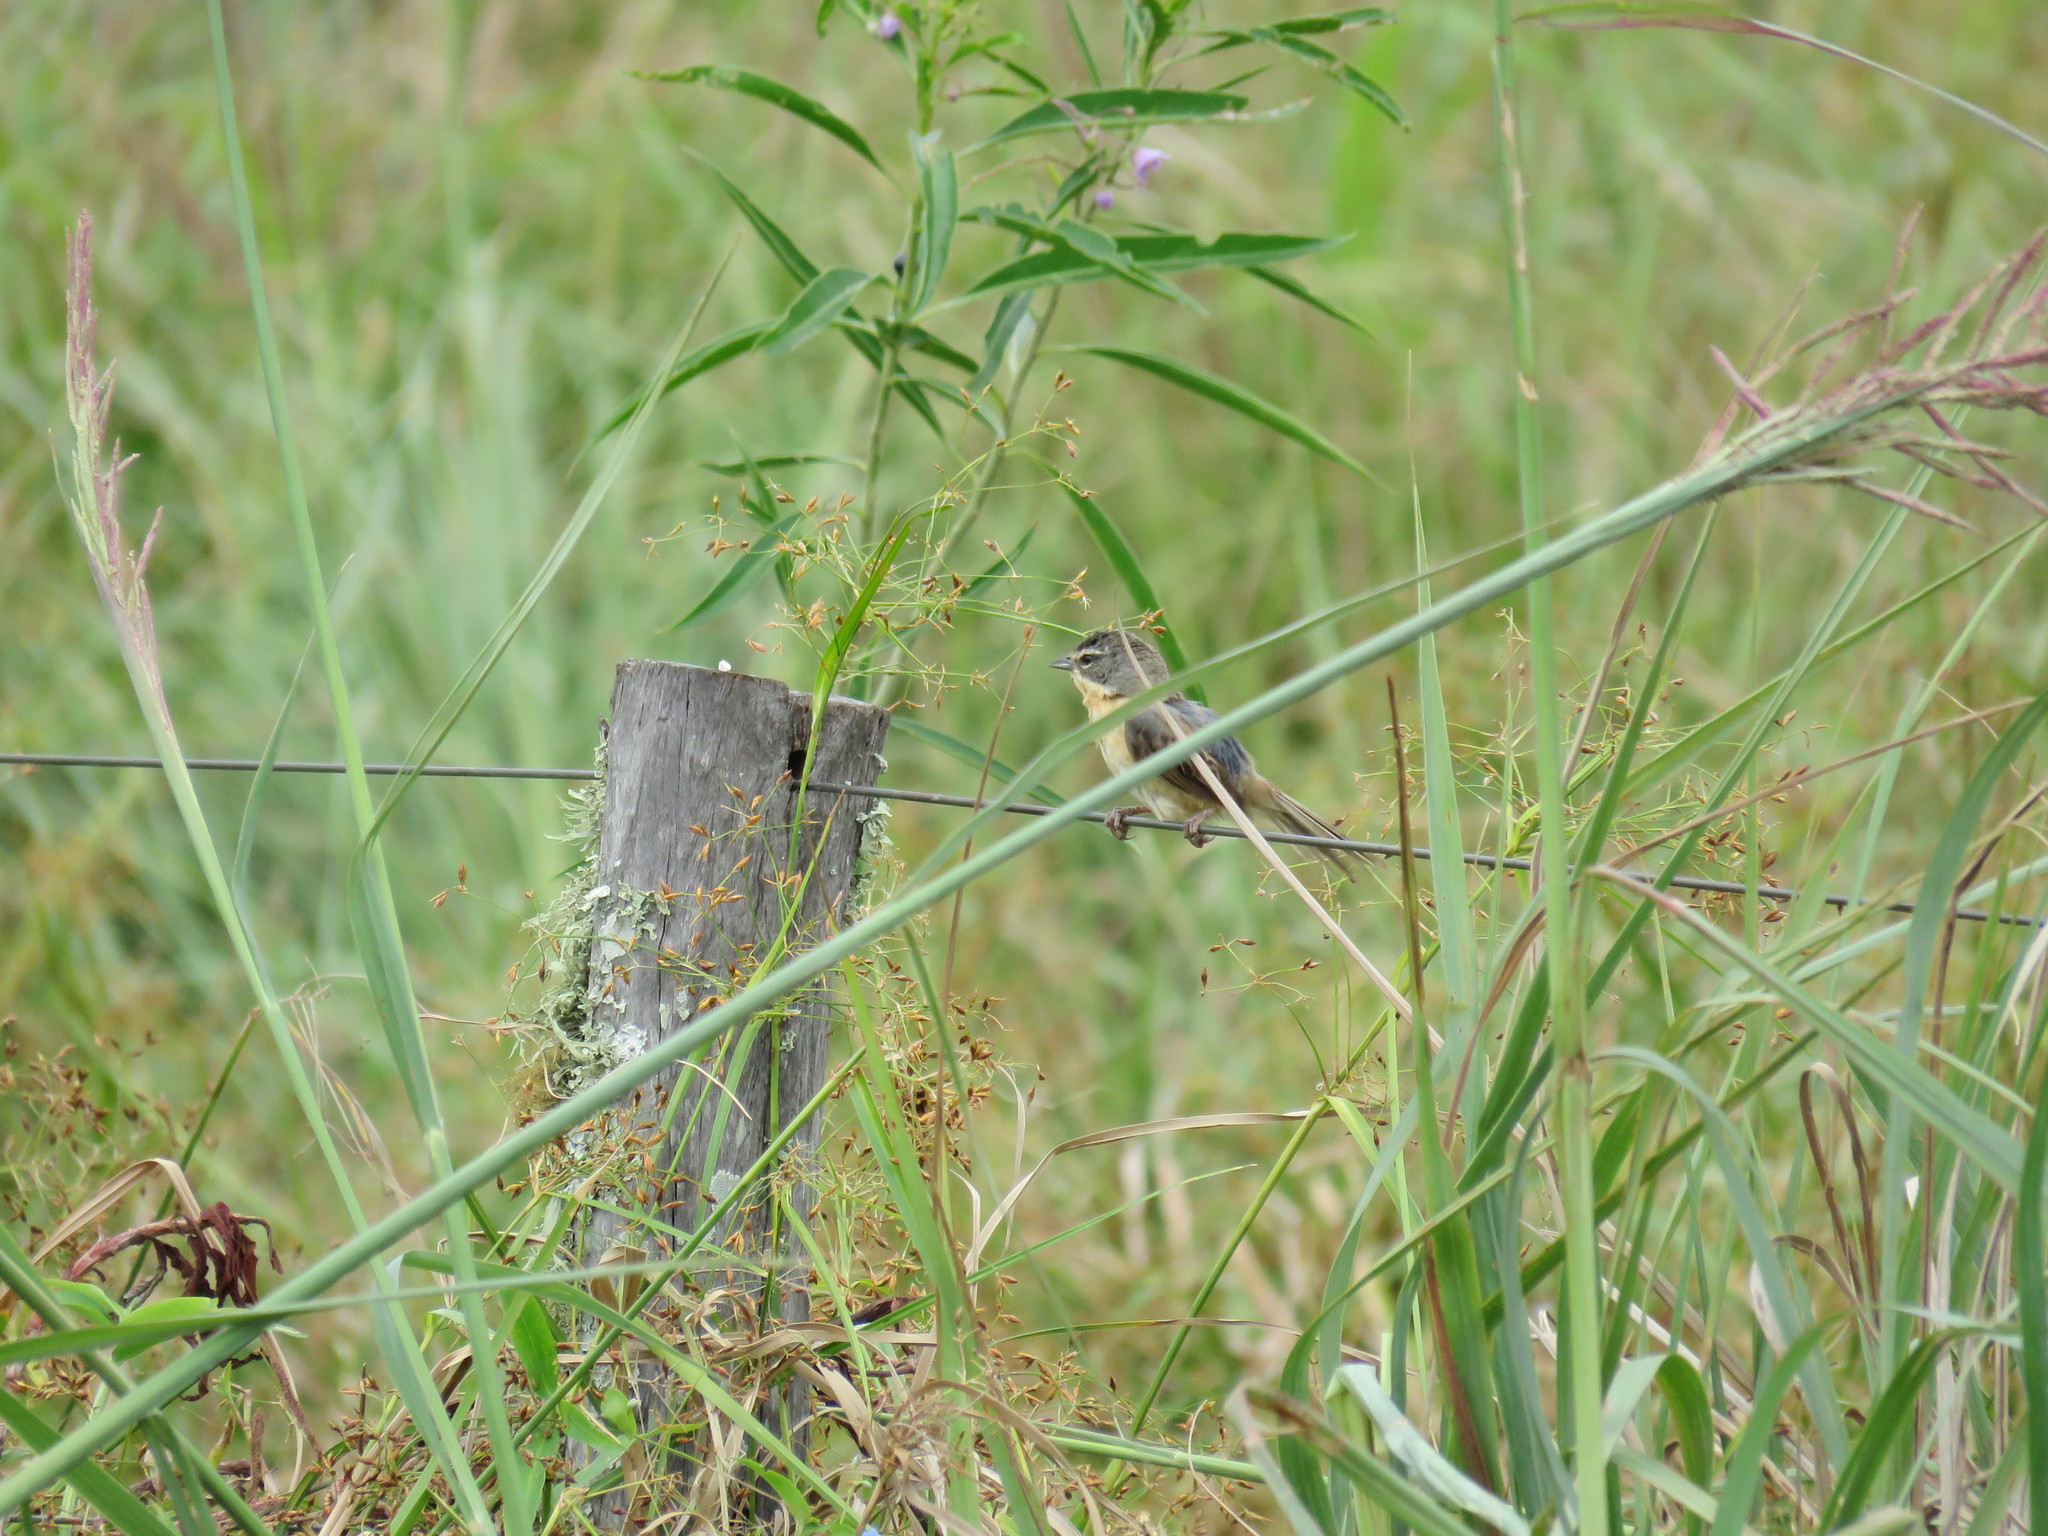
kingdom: Animalia
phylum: Chordata
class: Aves
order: Passeriformes
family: Thraupidae
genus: Donacospiza
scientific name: Donacospiza albifrons
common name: Long-tailed reed finch
